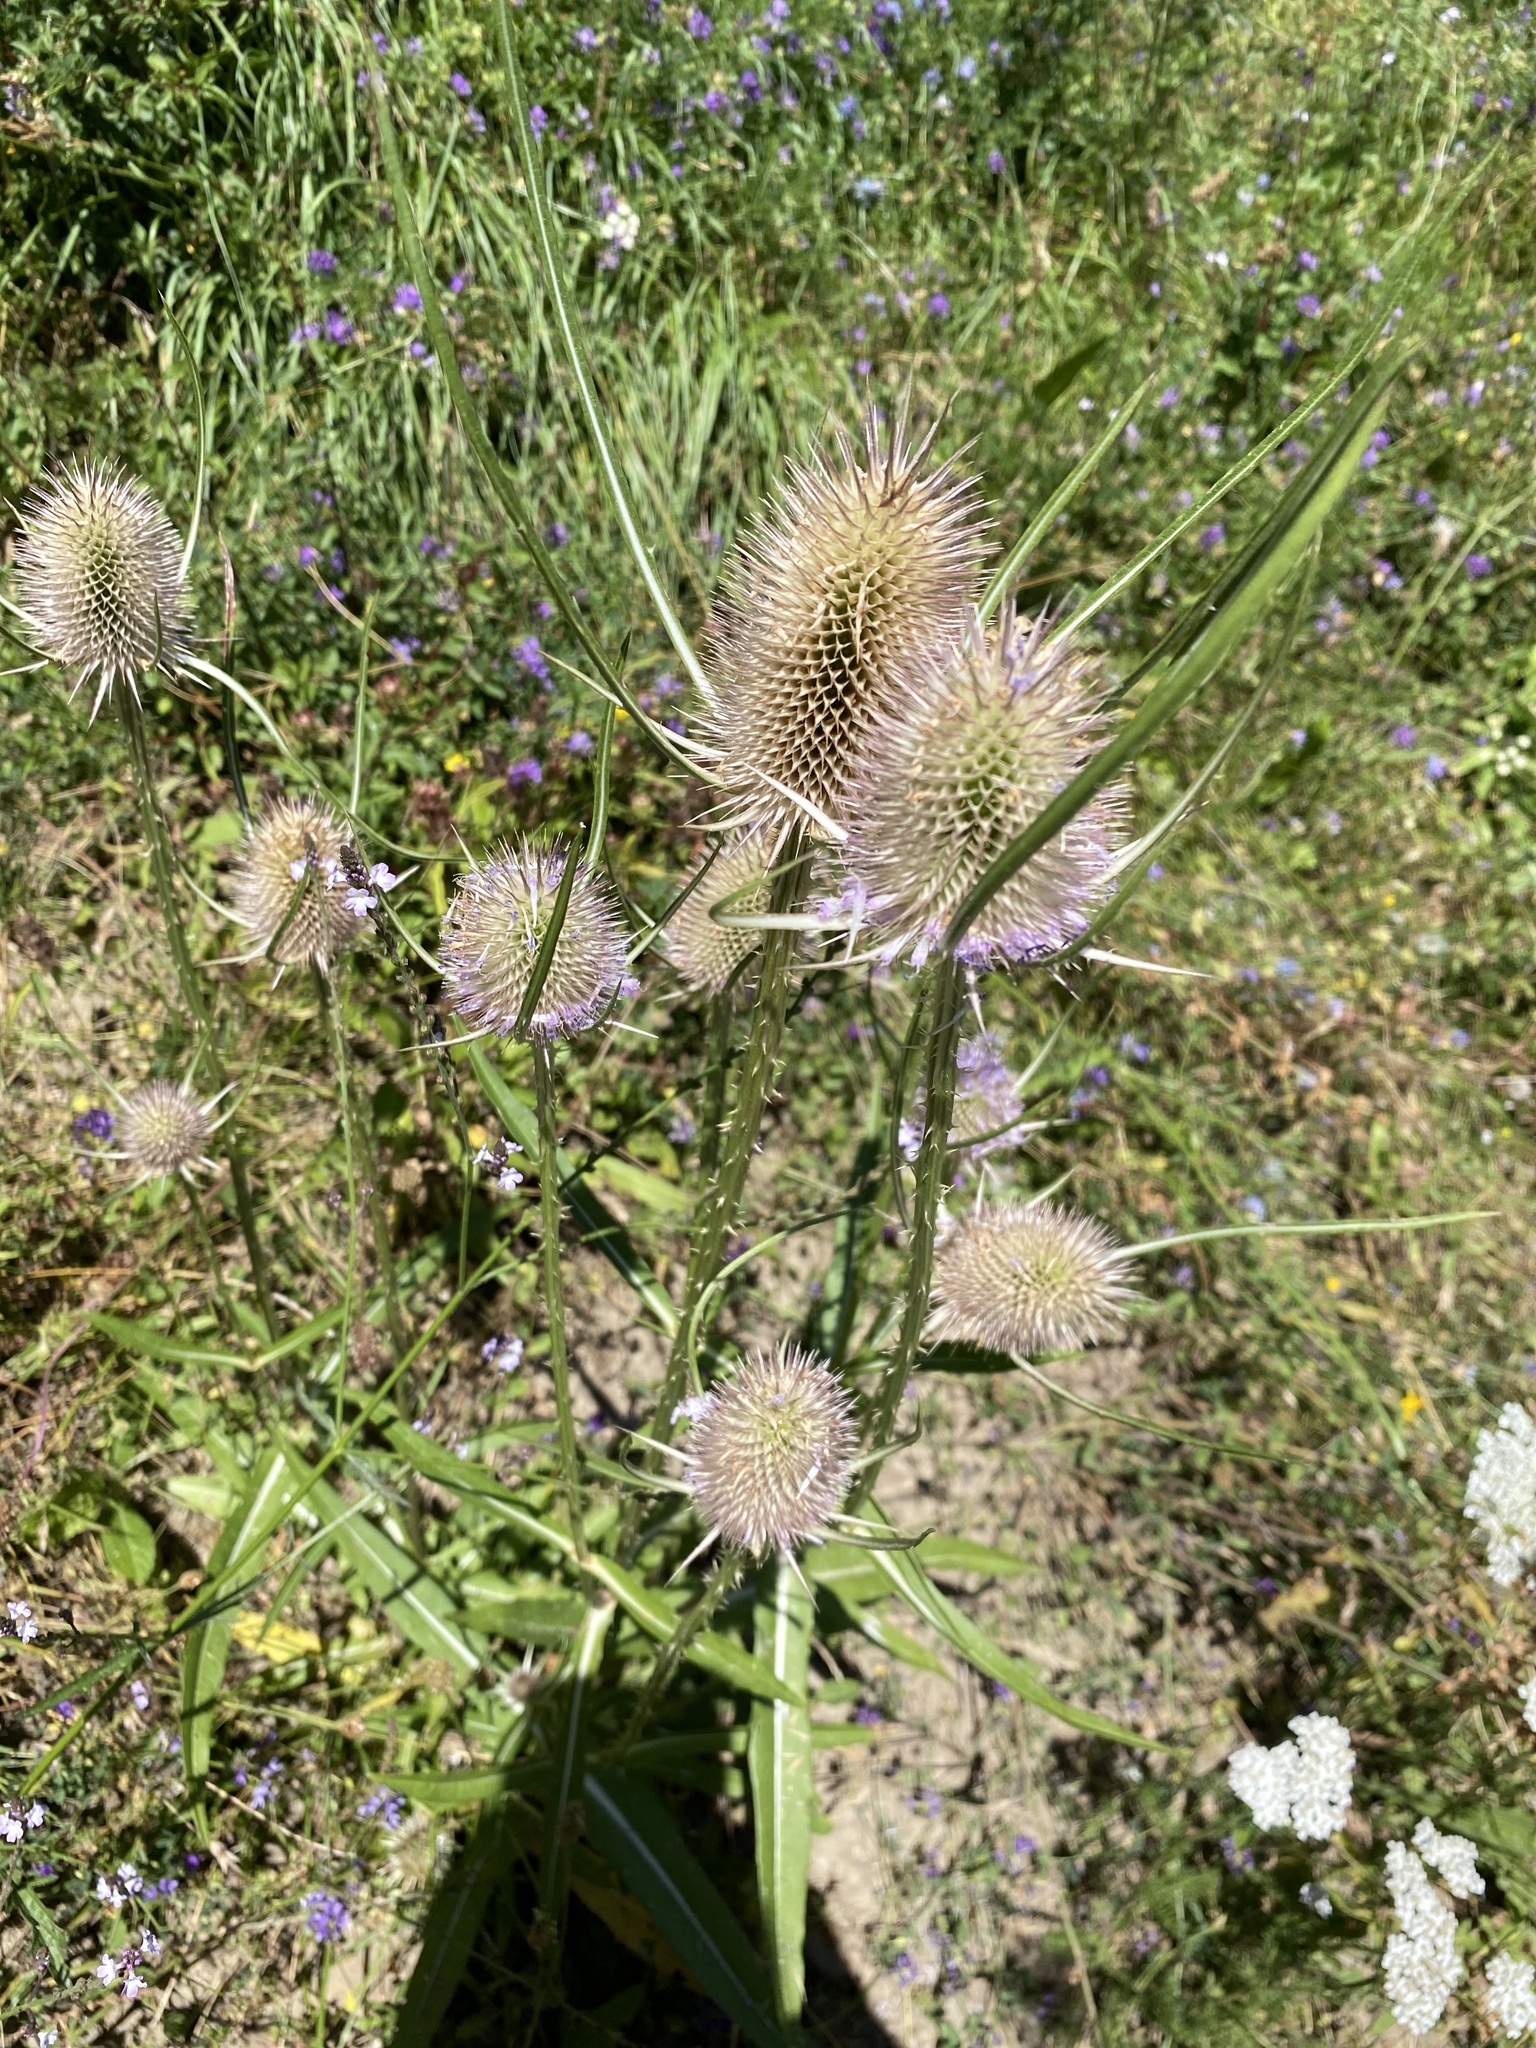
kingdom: Plantae
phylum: Tracheophyta
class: Magnoliopsida
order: Dipsacales
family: Caprifoliaceae
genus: Dipsacus
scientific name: Dipsacus fullonum
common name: Teasel
